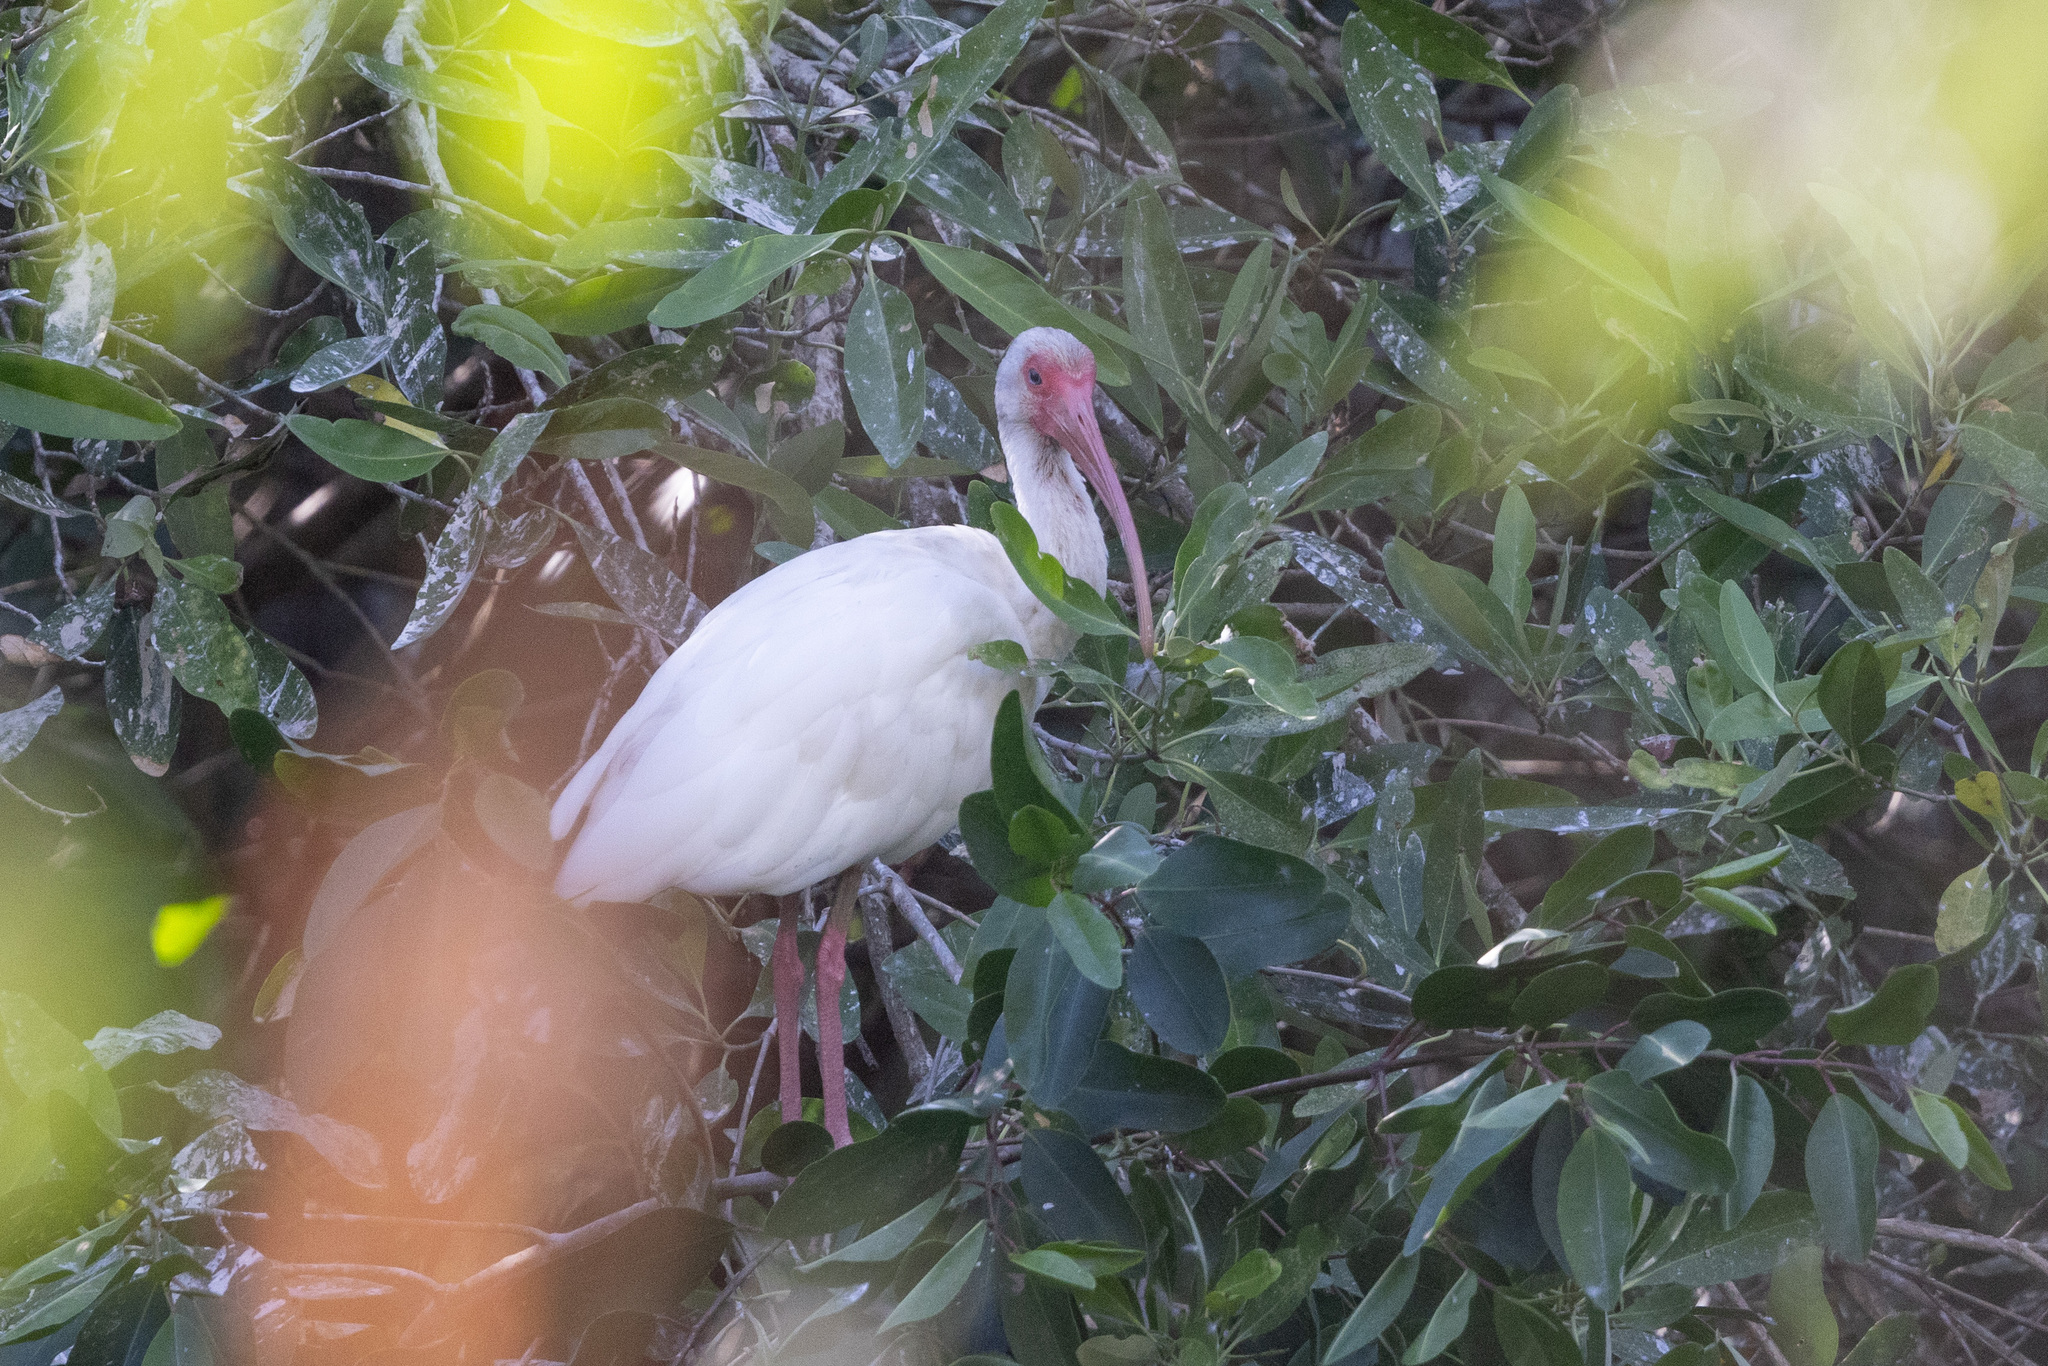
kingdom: Animalia
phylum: Chordata
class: Aves
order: Pelecaniformes
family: Threskiornithidae
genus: Eudocimus
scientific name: Eudocimus albus
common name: White ibis
